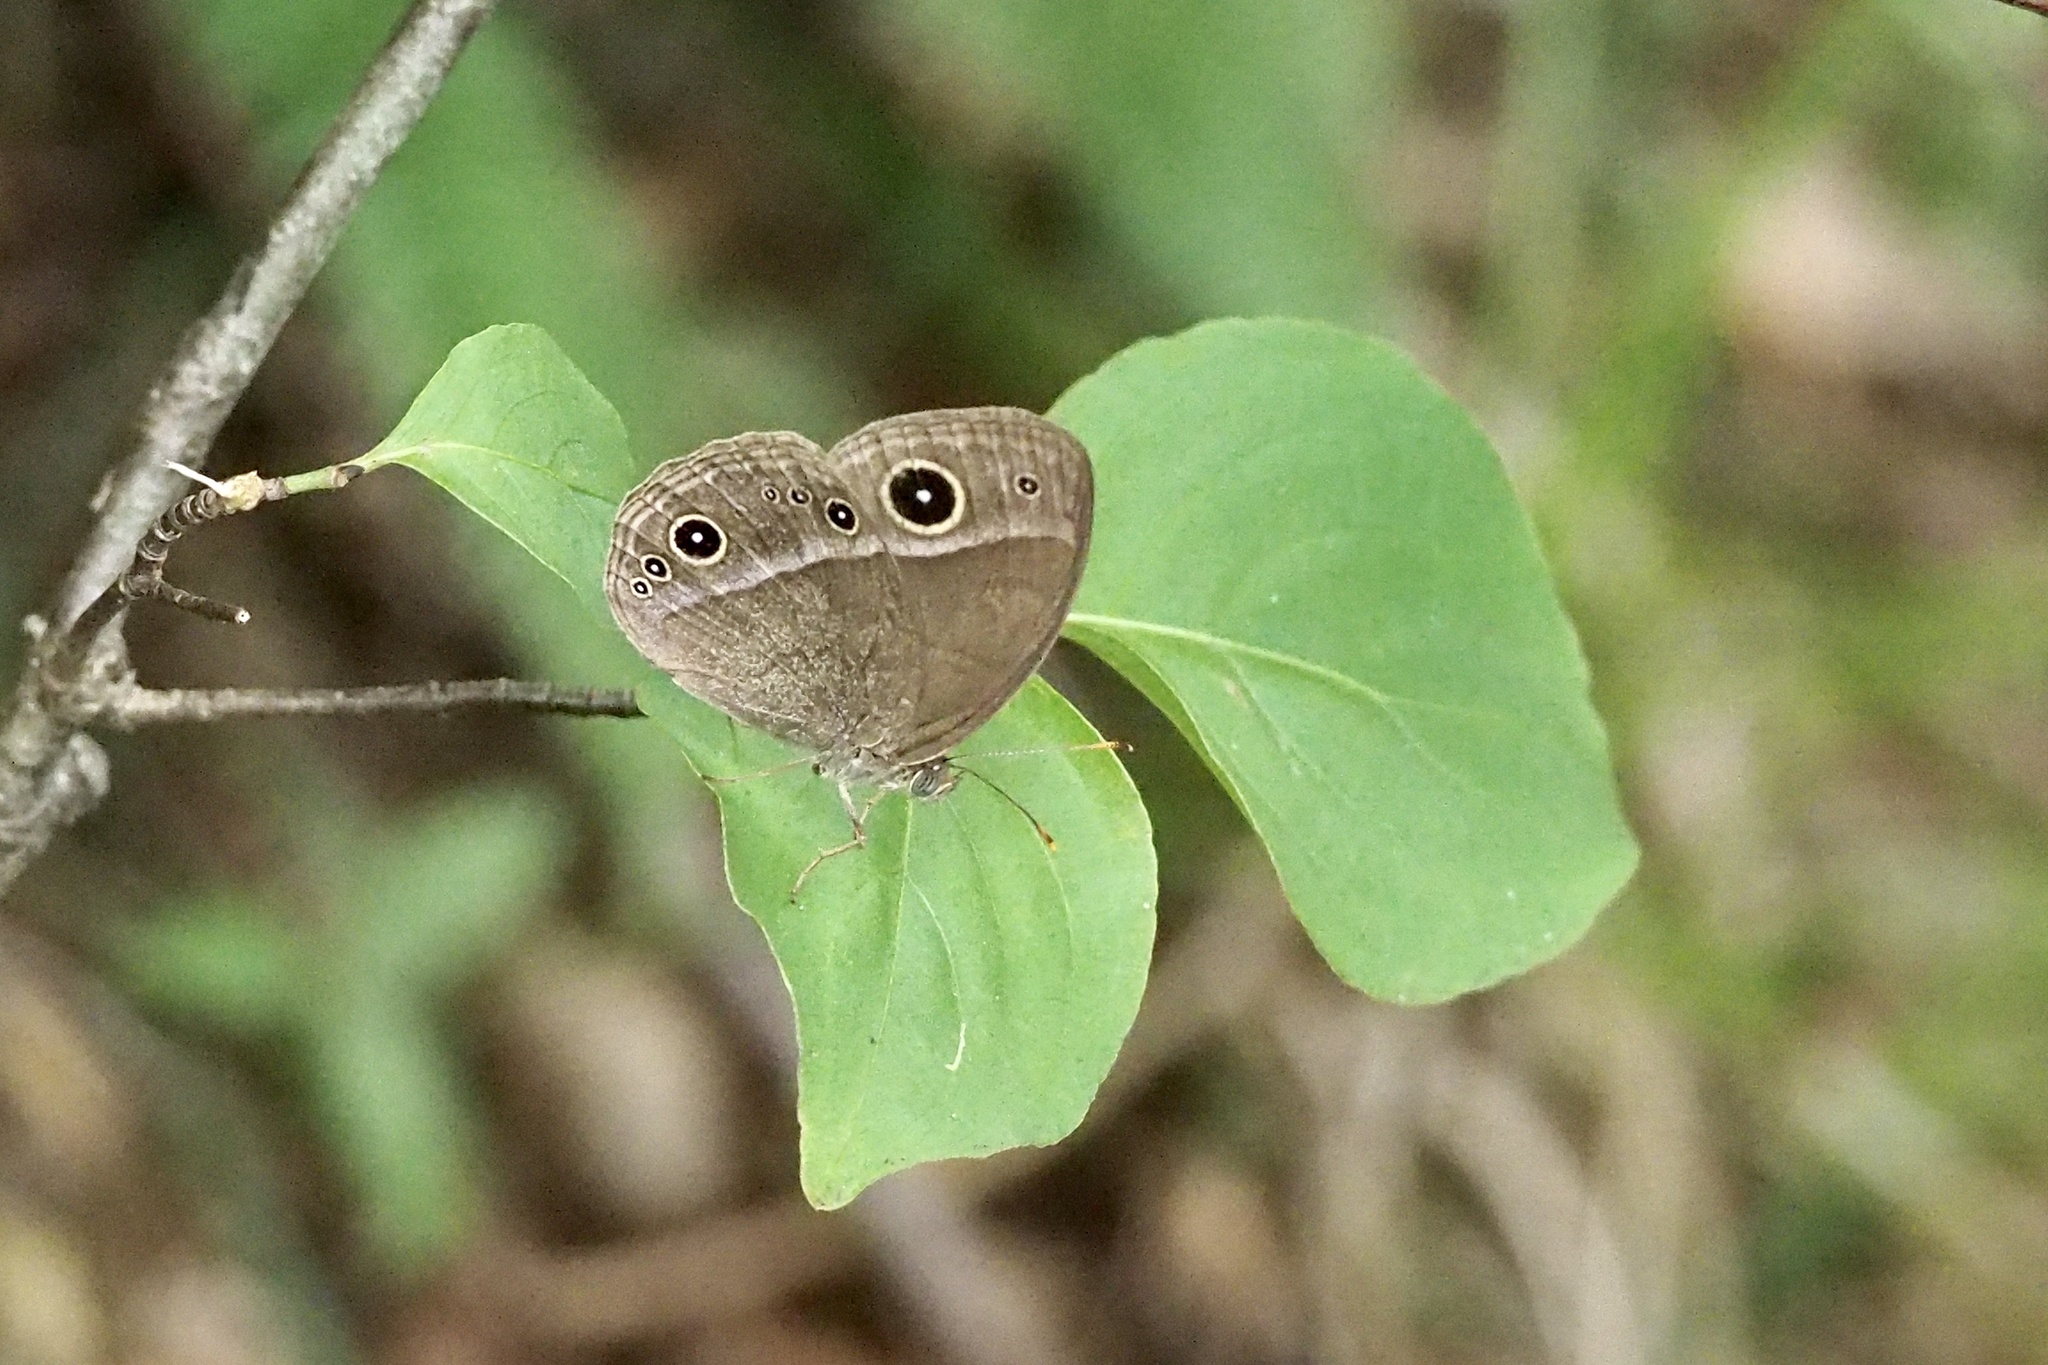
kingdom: Animalia
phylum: Arthropoda
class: Insecta
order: Lepidoptera
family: Nymphalidae
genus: Mycalesis
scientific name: Mycalesis gotama
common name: Chinese bushbrown
